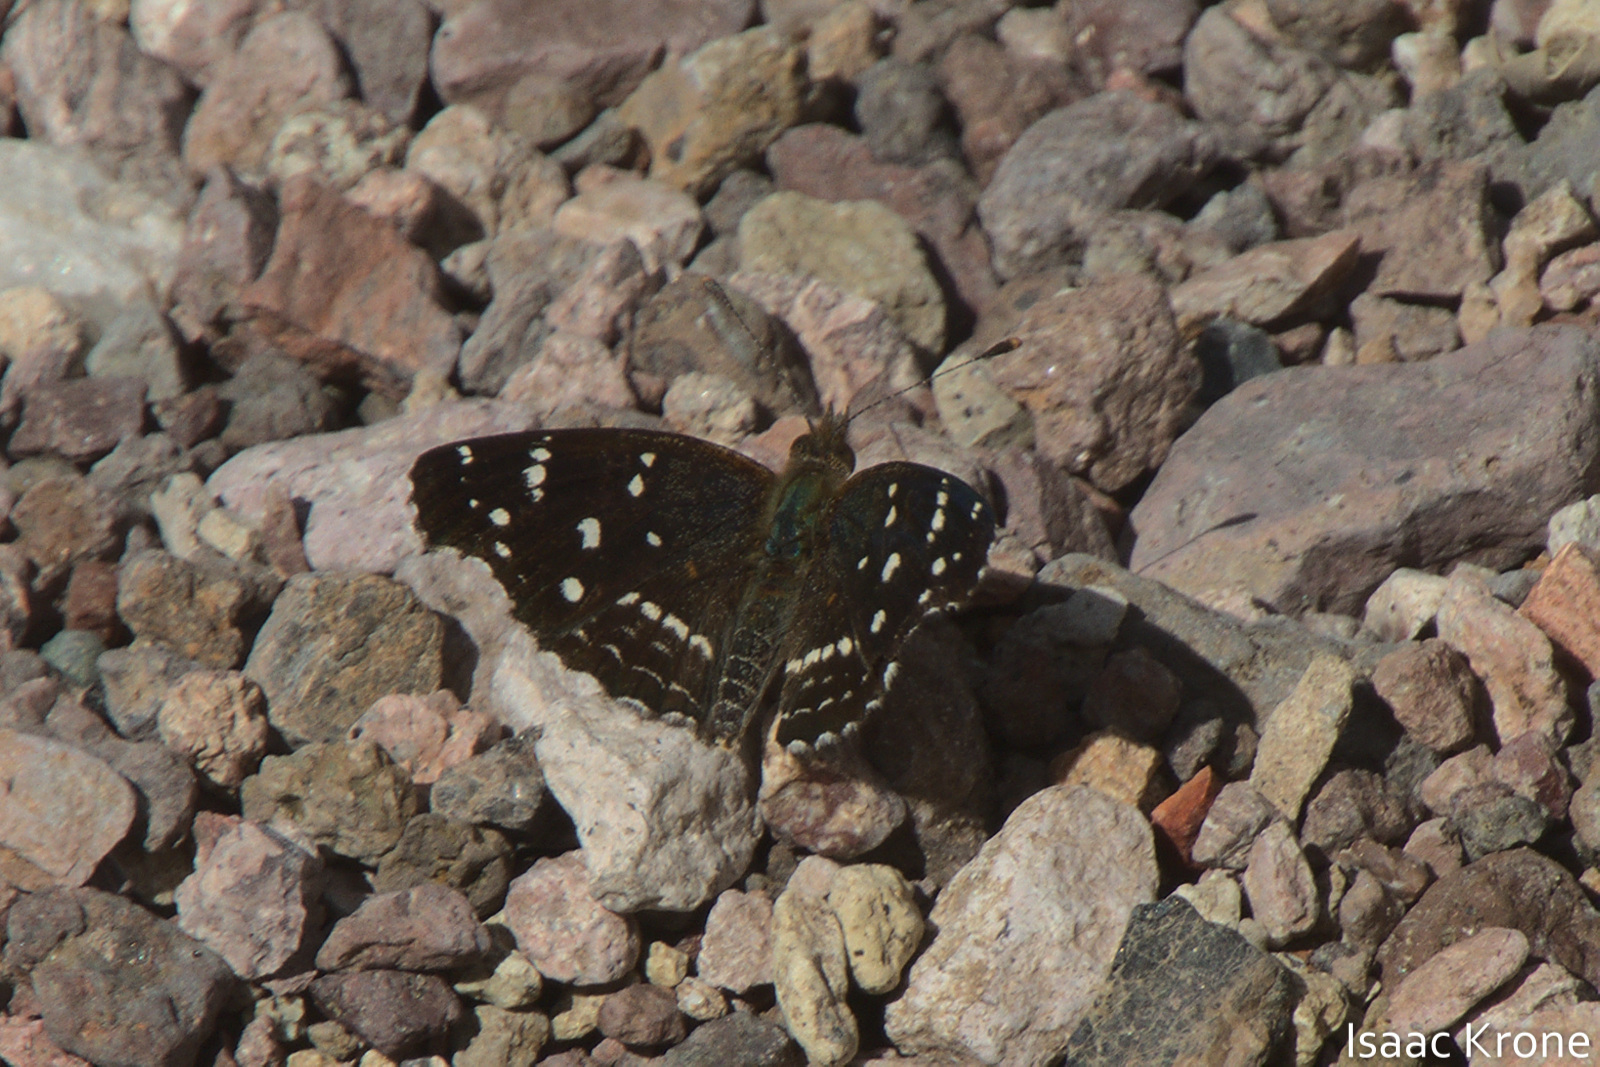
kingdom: Animalia
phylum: Arthropoda
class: Insecta
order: Lepidoptera
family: Nymphalidae
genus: Anthanassa
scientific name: Anthanassa texana
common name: Texan crescent
